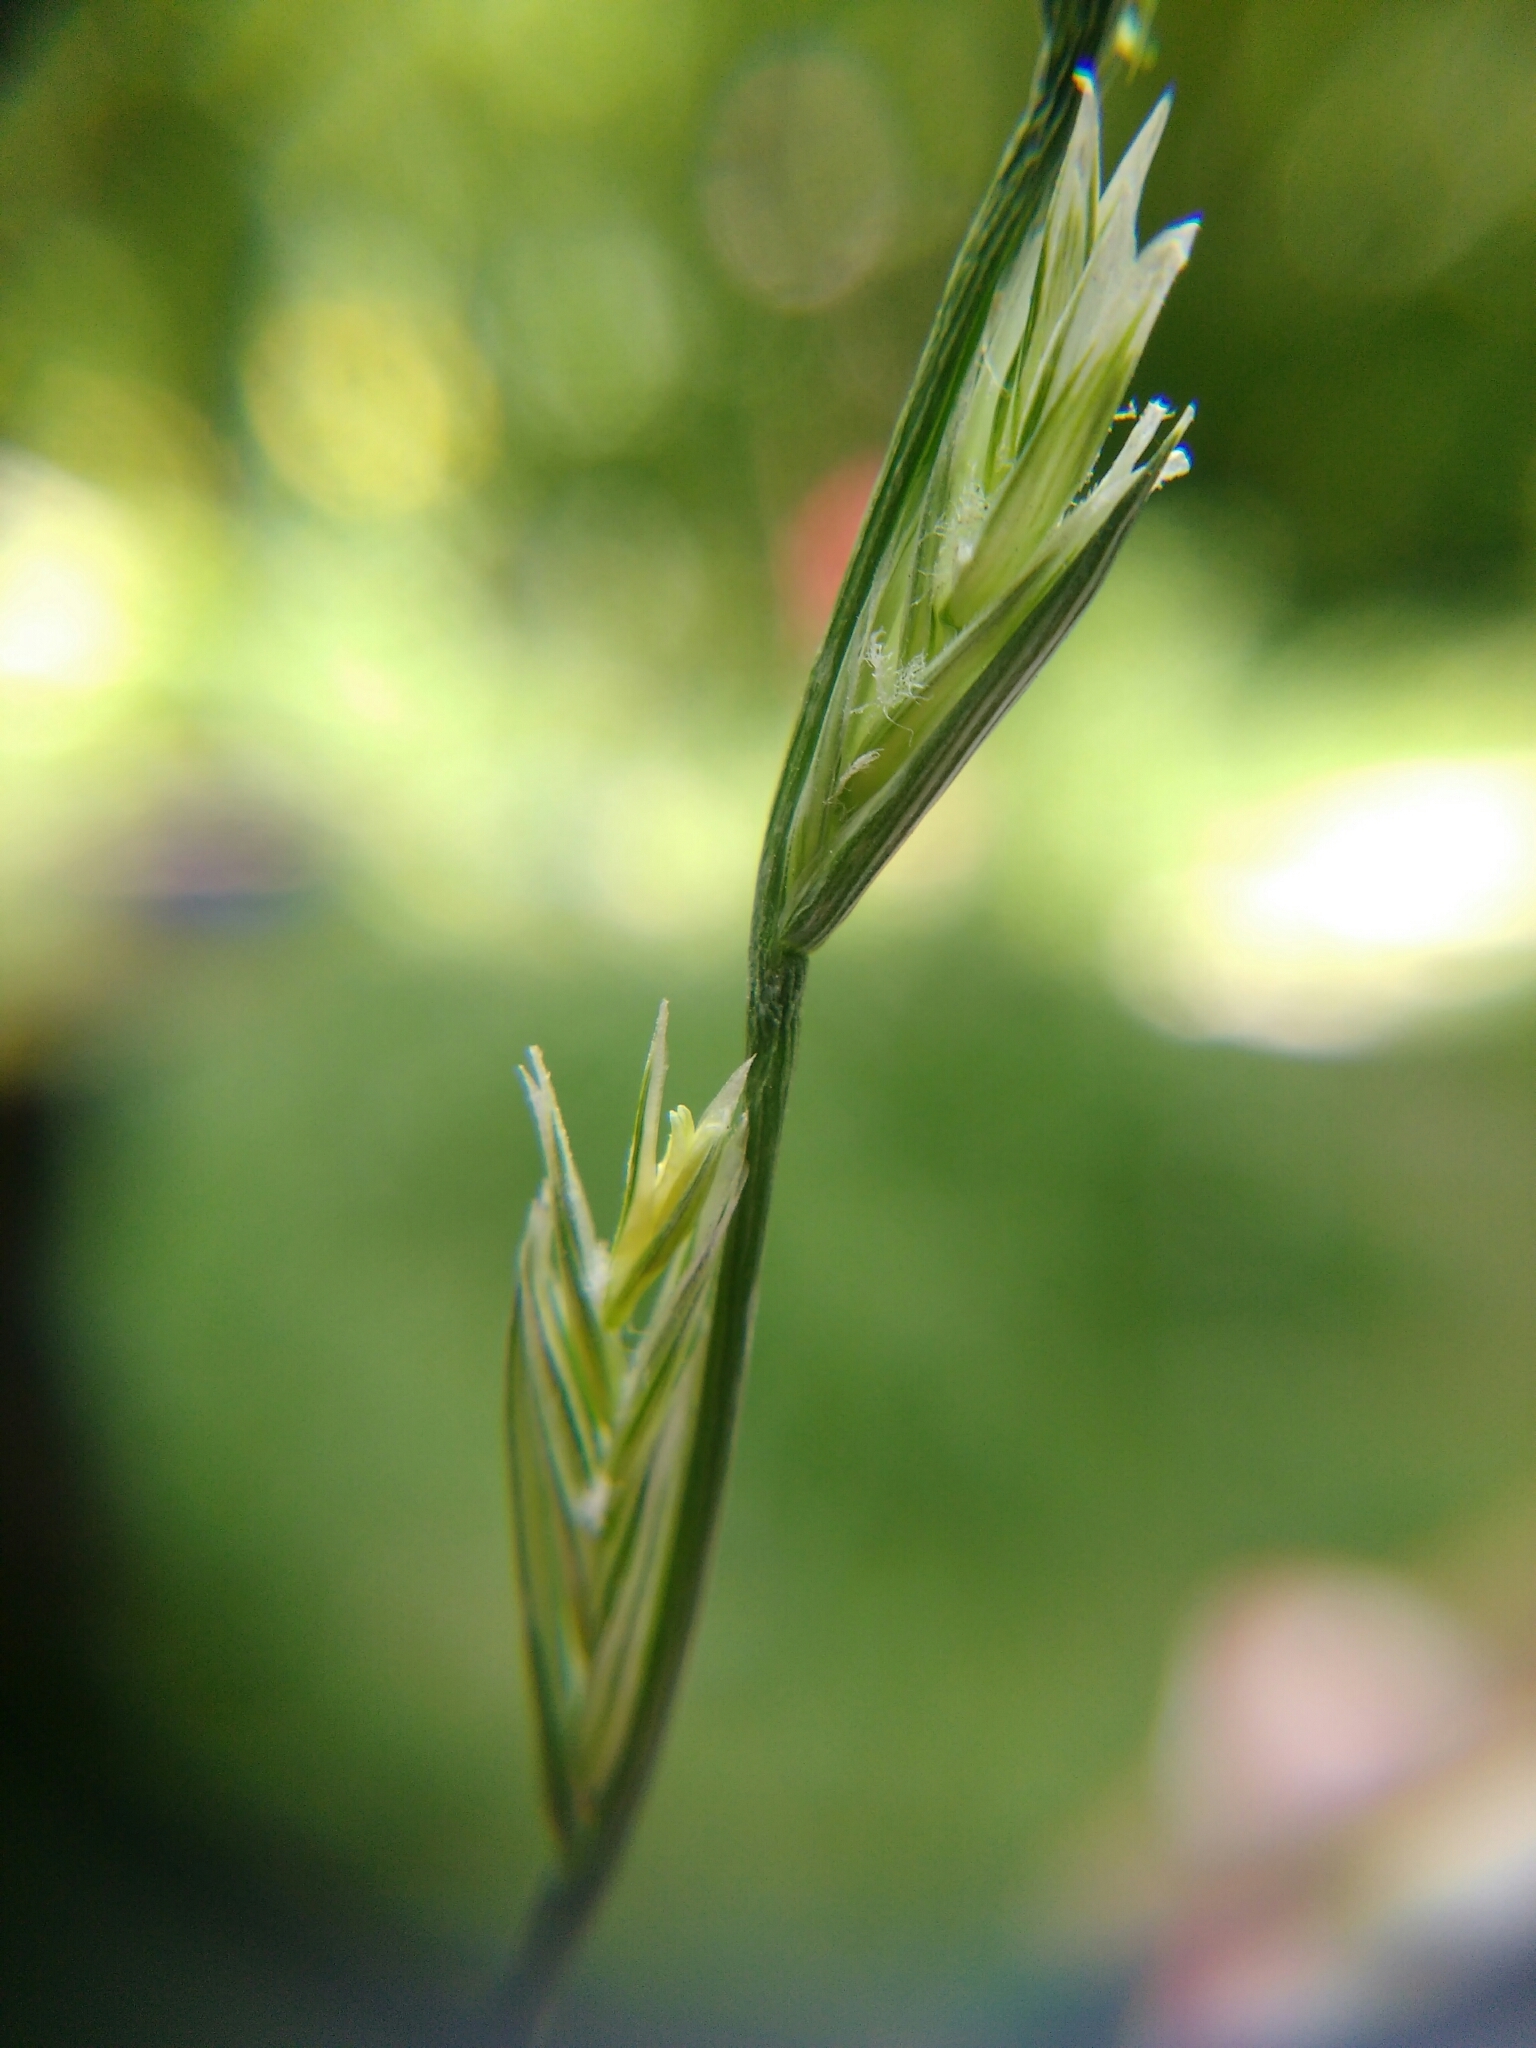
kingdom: Plantae
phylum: Tracheophyta
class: Liliopsida
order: Poales
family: Poaceae
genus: Lolium
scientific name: Lolium perenne
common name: Perennial ryegrass
